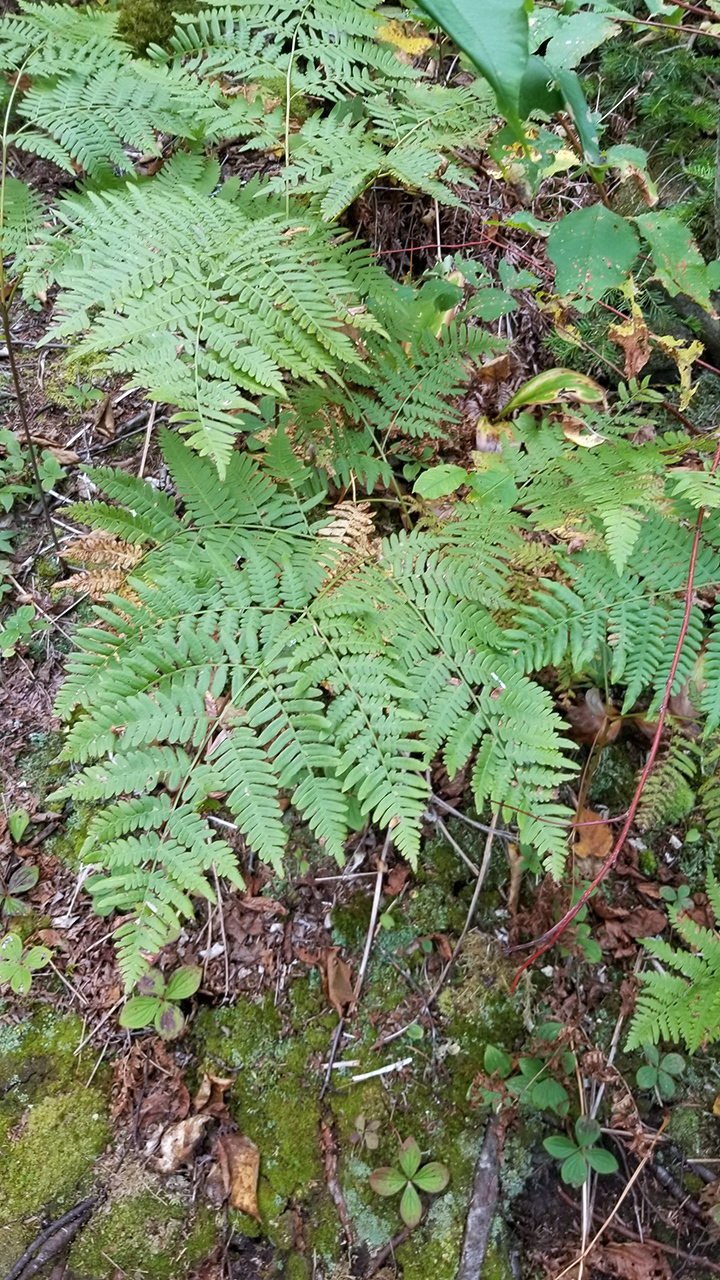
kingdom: Plantae
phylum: Tracheophyta
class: Polypodiopsida
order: Polypodiales
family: Dennstaedtiaceae
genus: Pteridium
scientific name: Pteridium aquilinum
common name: Bracken
